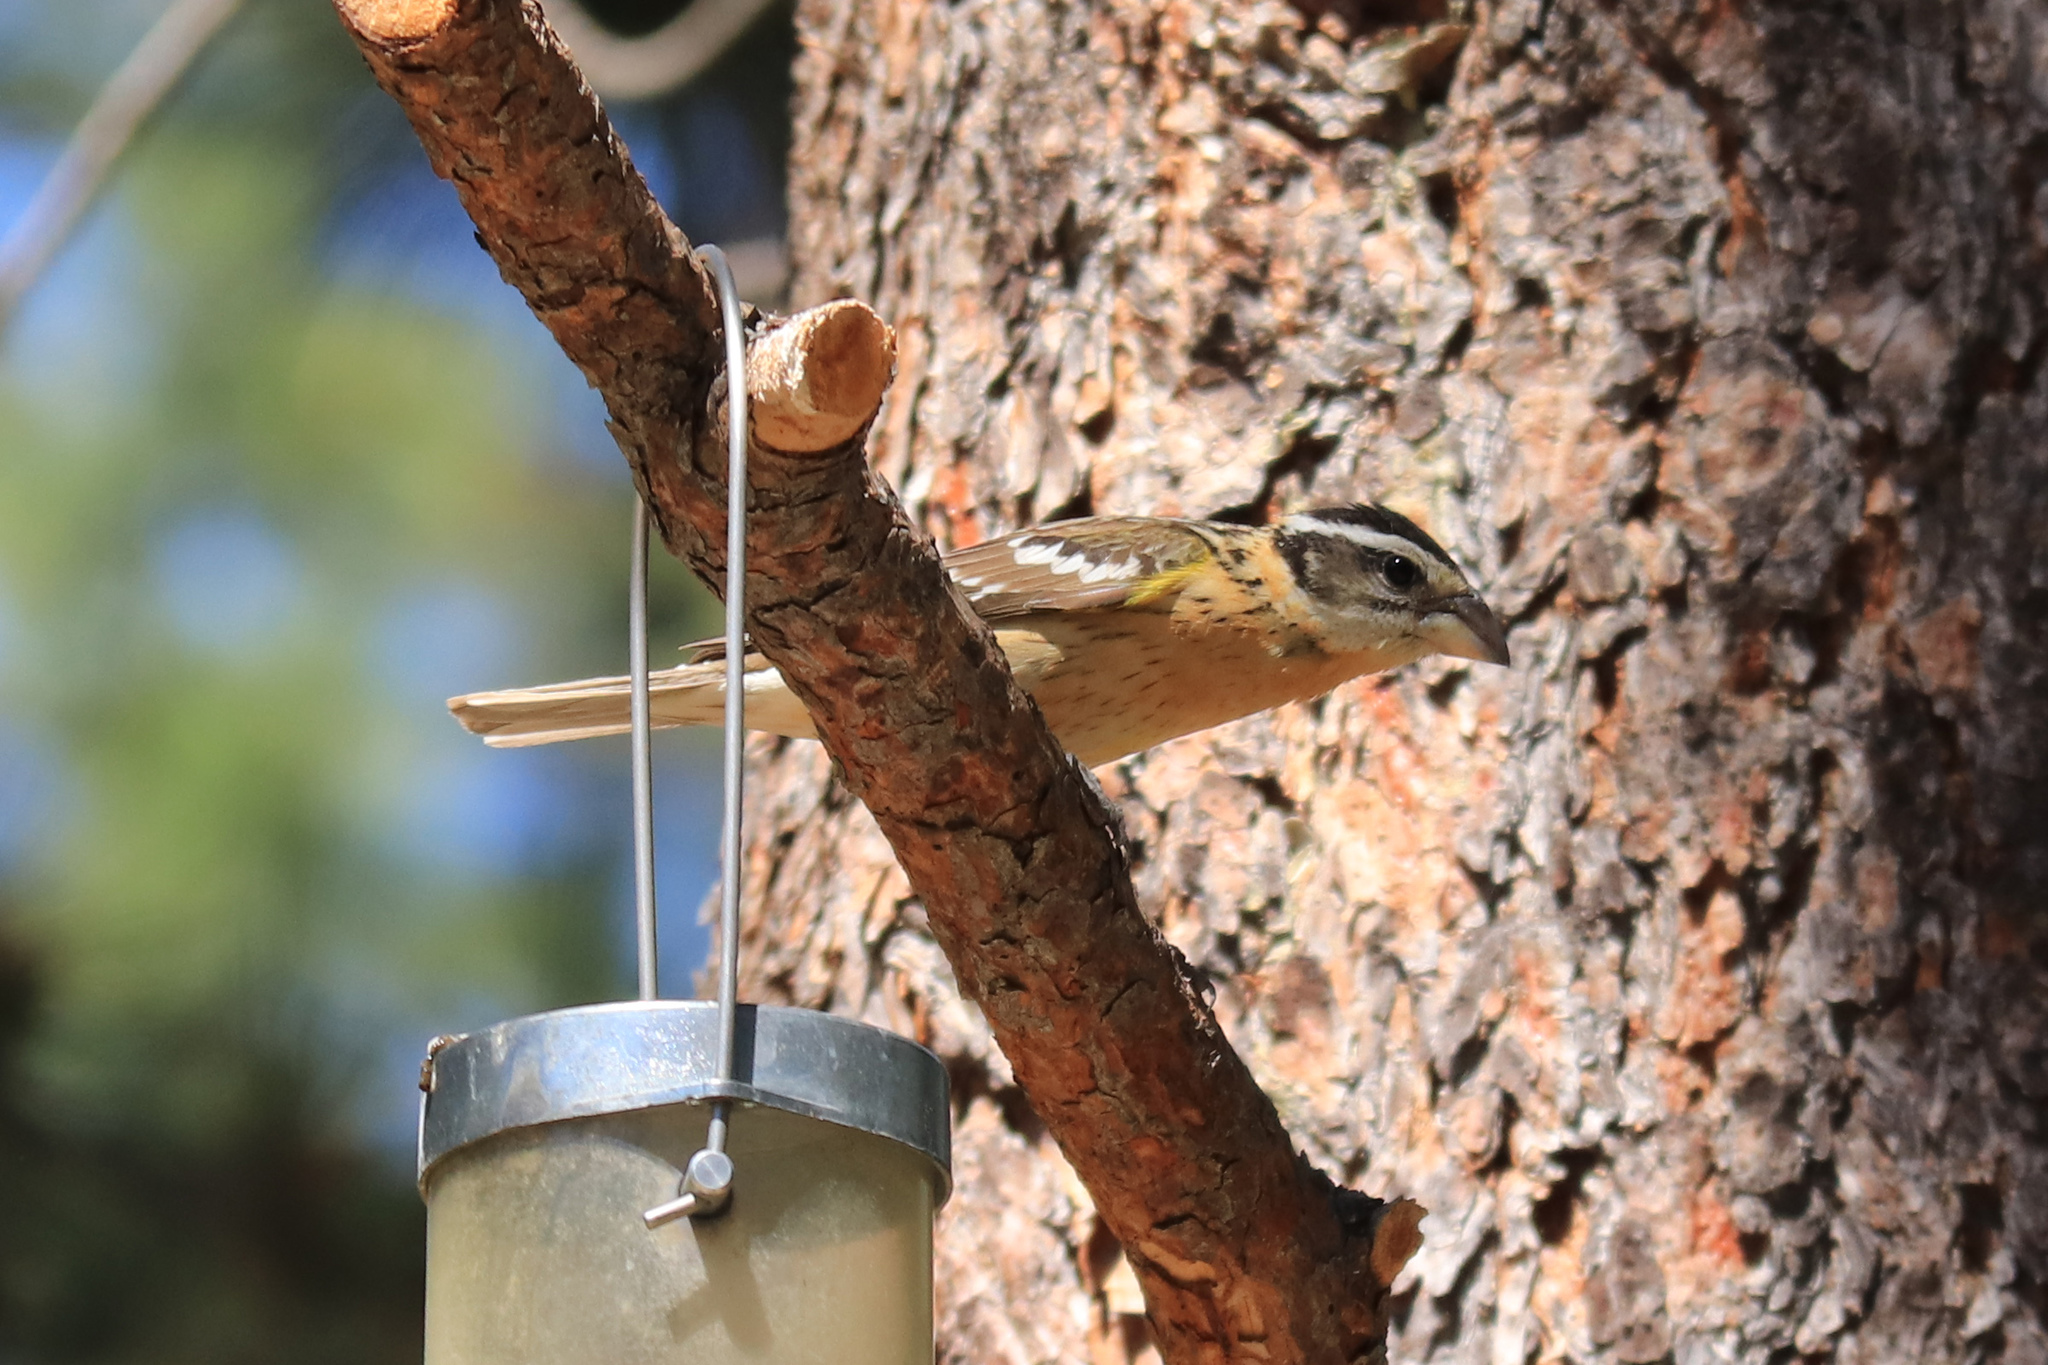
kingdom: Animalia
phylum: Chordata
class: Aves
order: Passeriformes
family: Cardinalidae
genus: Pheucticus
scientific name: Pheucticus melanocephalus
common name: Black-headed grosbeak
